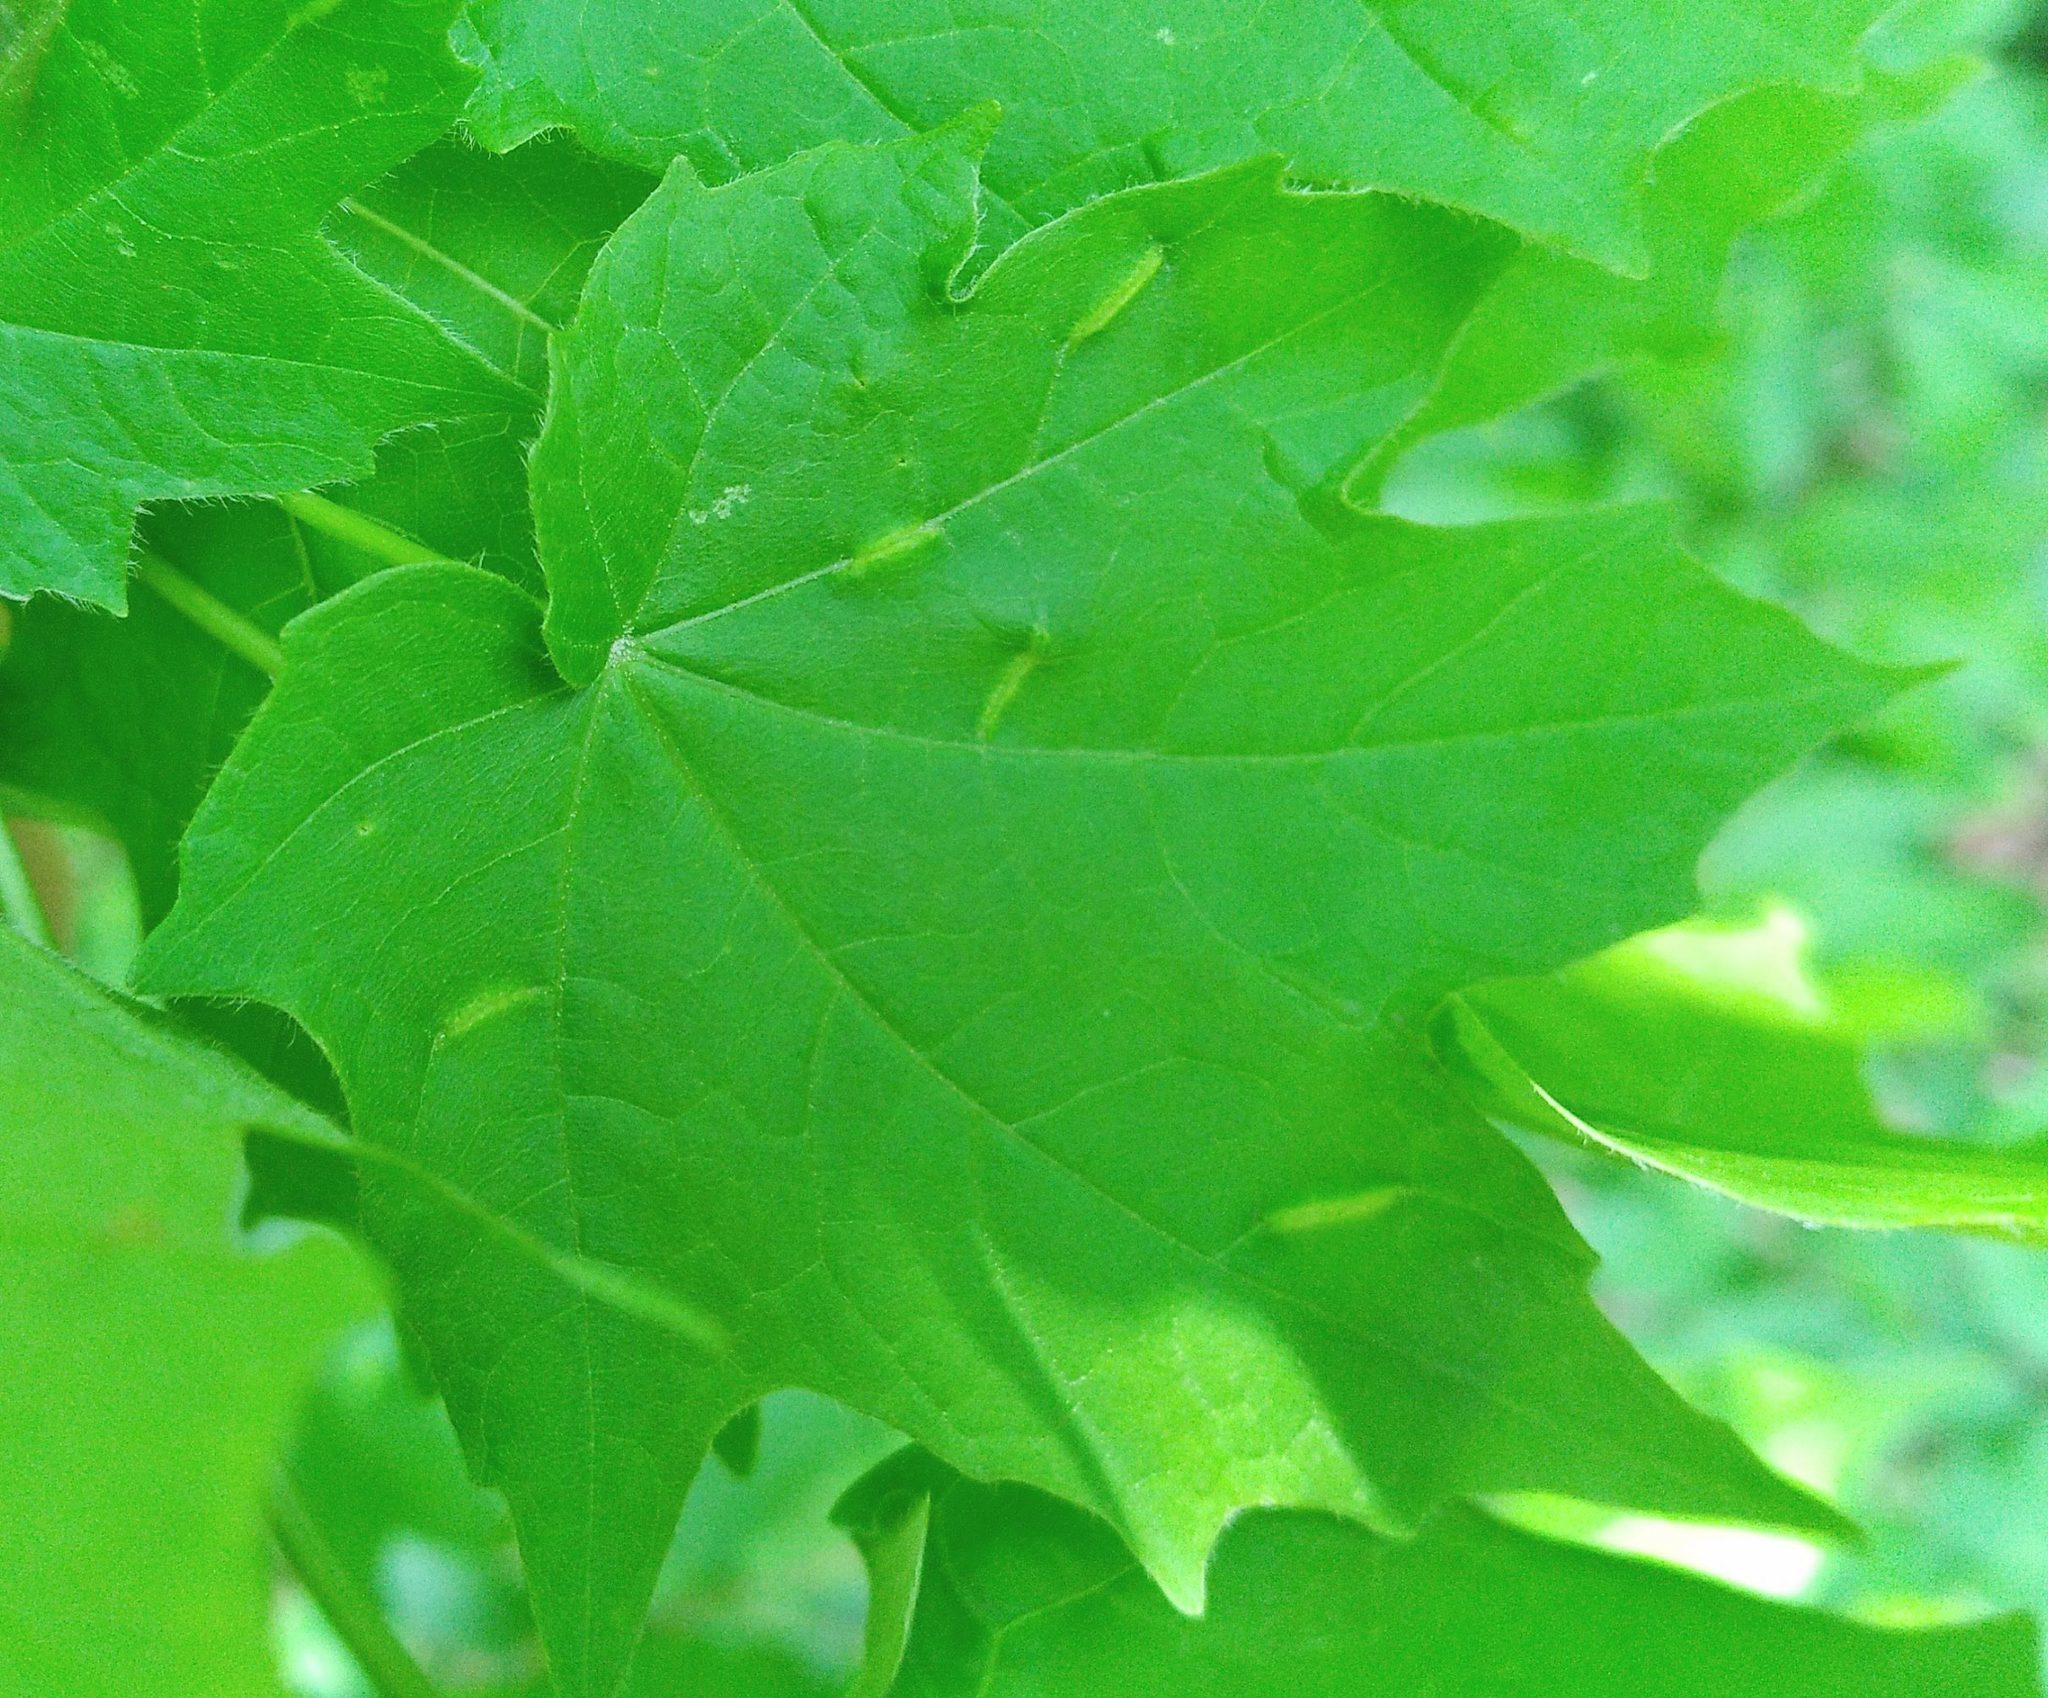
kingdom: Animalia
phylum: Arthropoda
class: Insecta
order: Diptera
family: Cecidomyiidae
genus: Dasineura
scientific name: Dasineura communis
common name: Gouty vein midge
